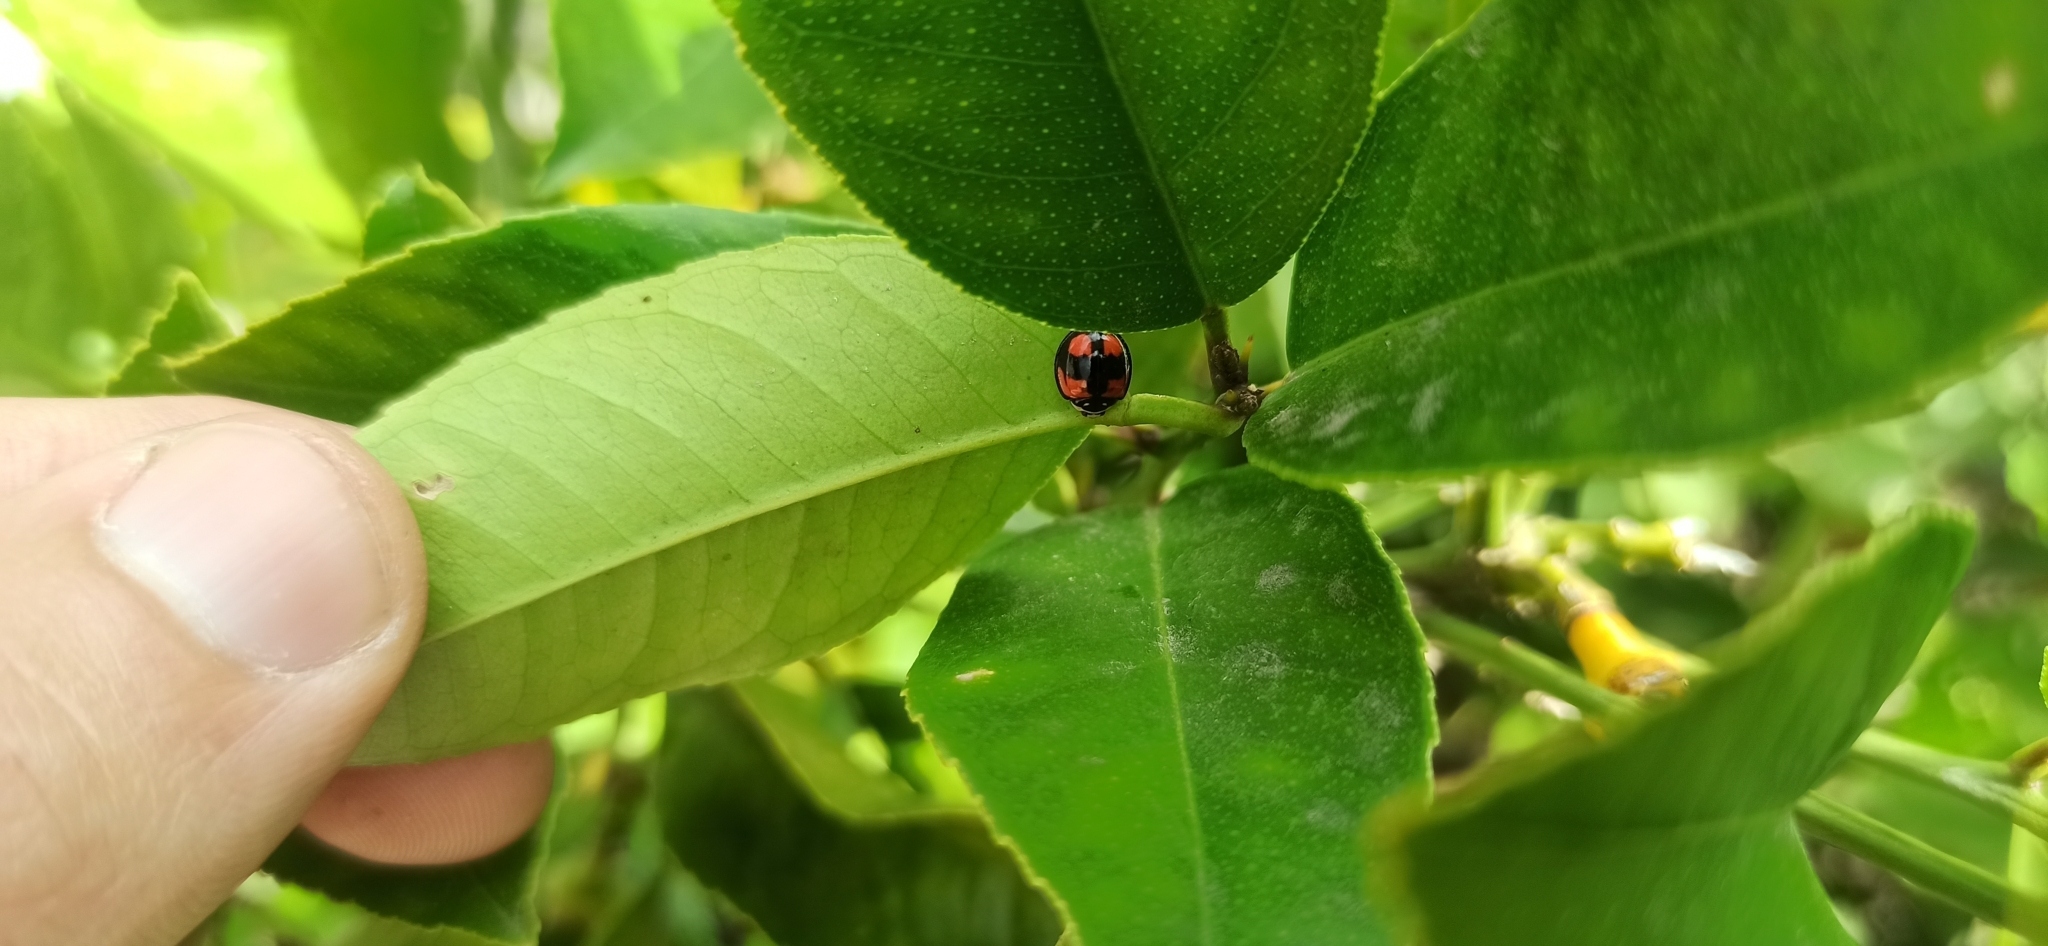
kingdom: Animalia
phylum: Arthropoda
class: Insecta
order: Coleoptera
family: Coccinellidae
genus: Cheilomenes
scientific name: Cheilomenes sexmaculata
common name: Ladybird beetle
